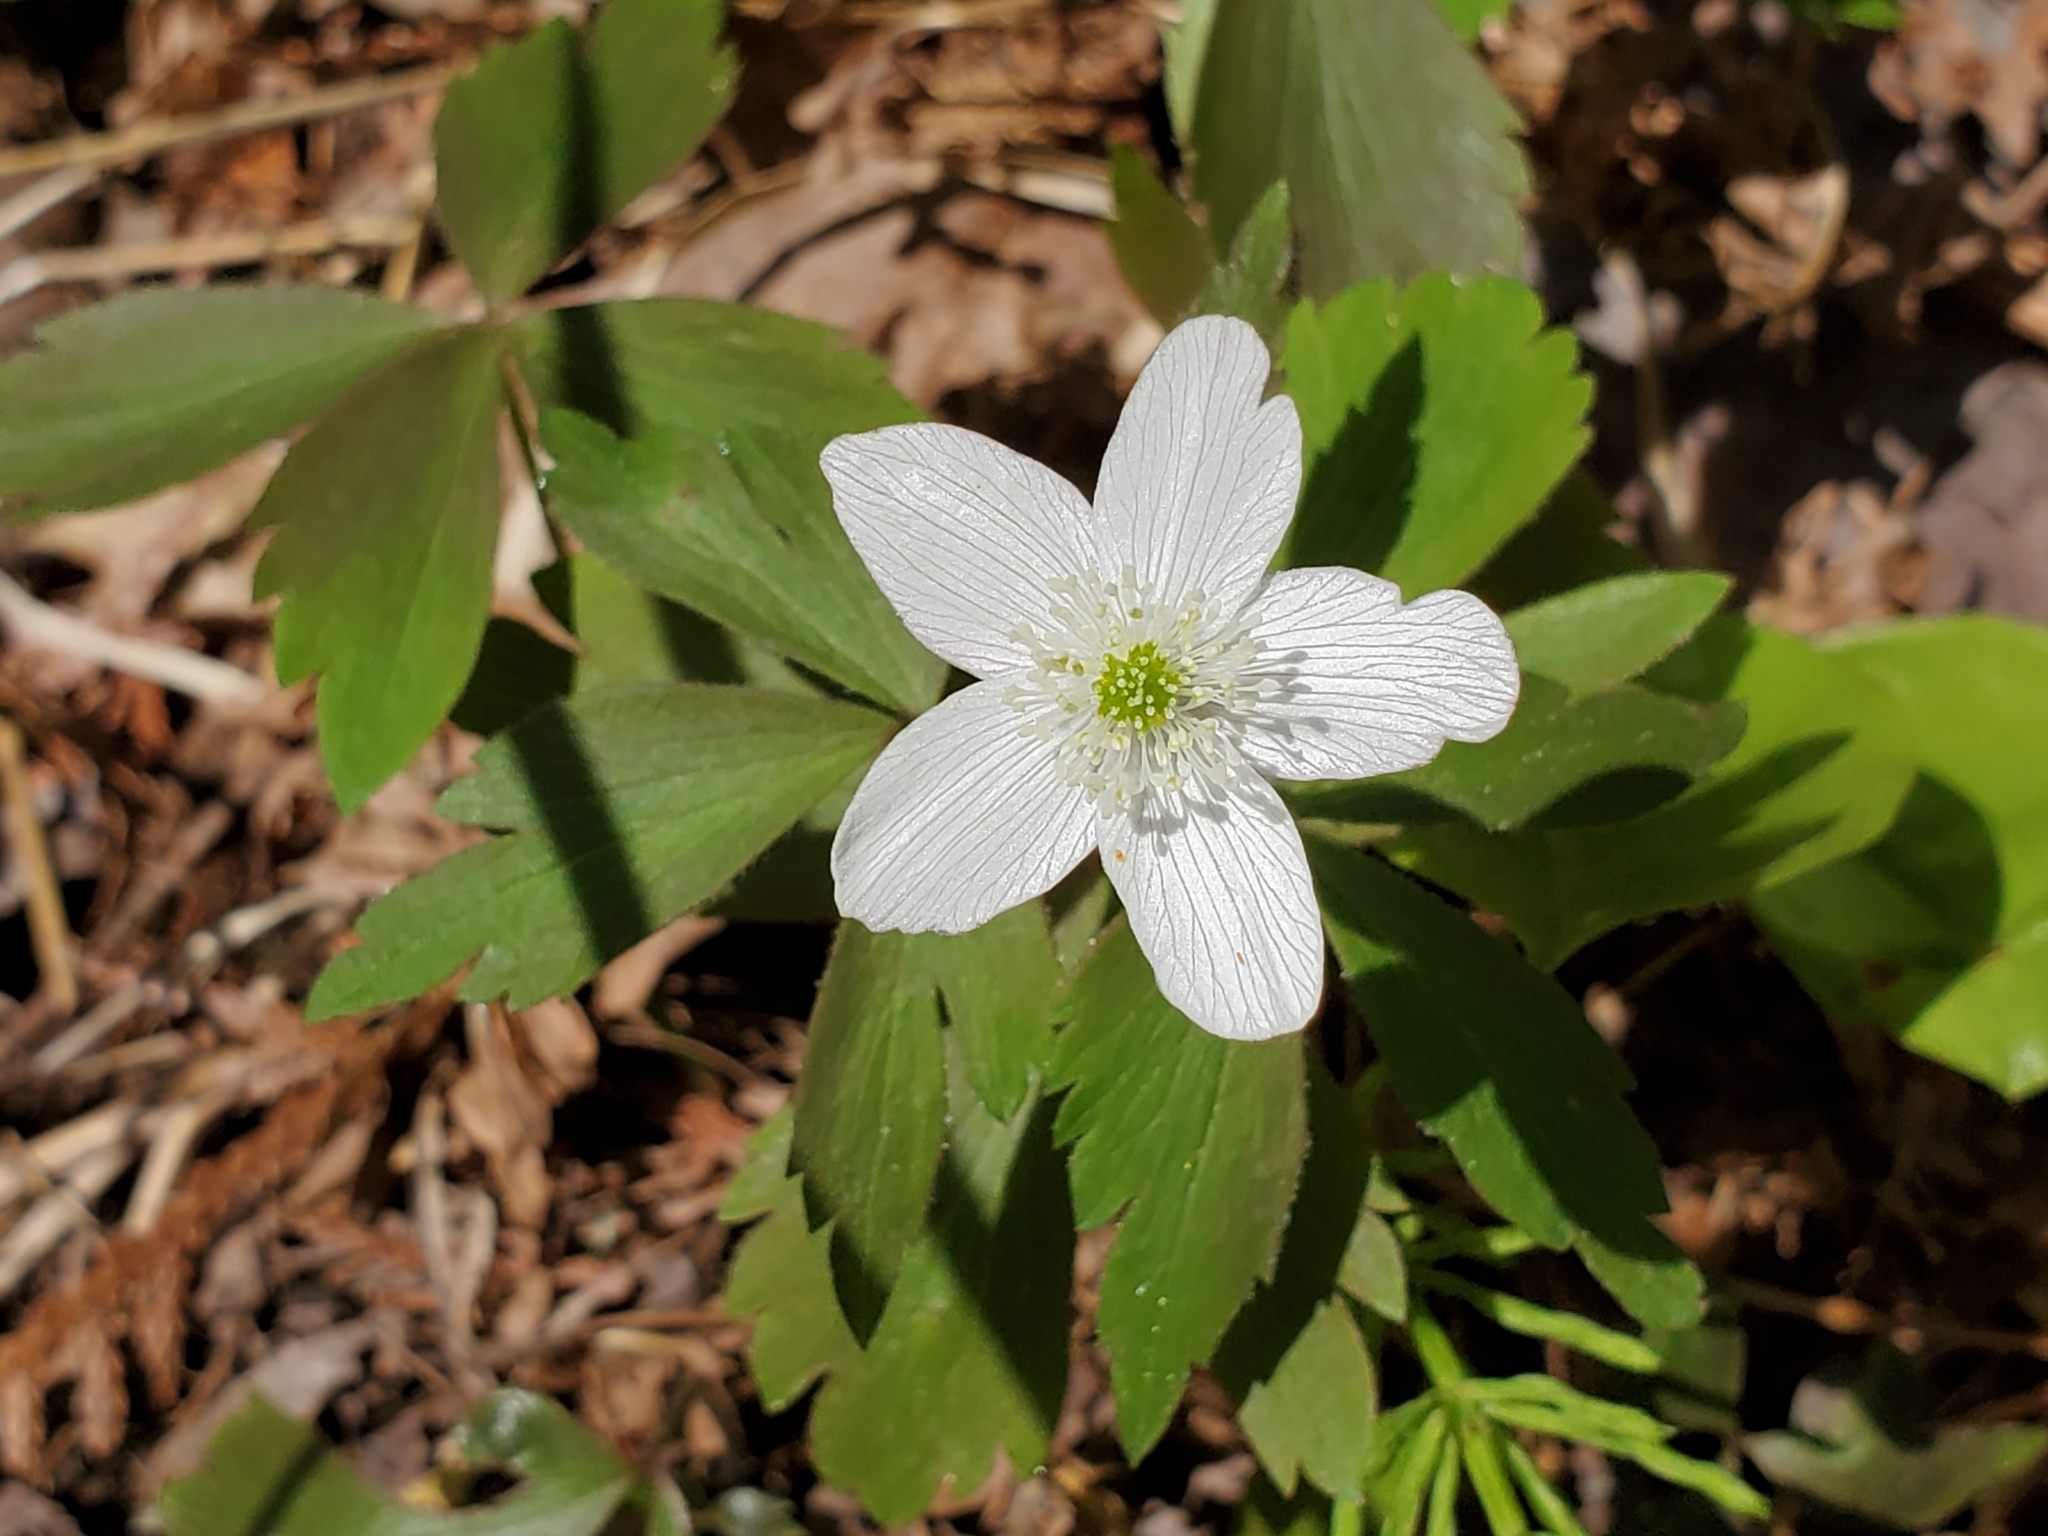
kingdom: Plantae
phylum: Tracheophyta
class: Magnoliopsida
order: Ranunculales
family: Ranunculaceae
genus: Anemone
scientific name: Anemone quinquefolia
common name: Wood anemone
